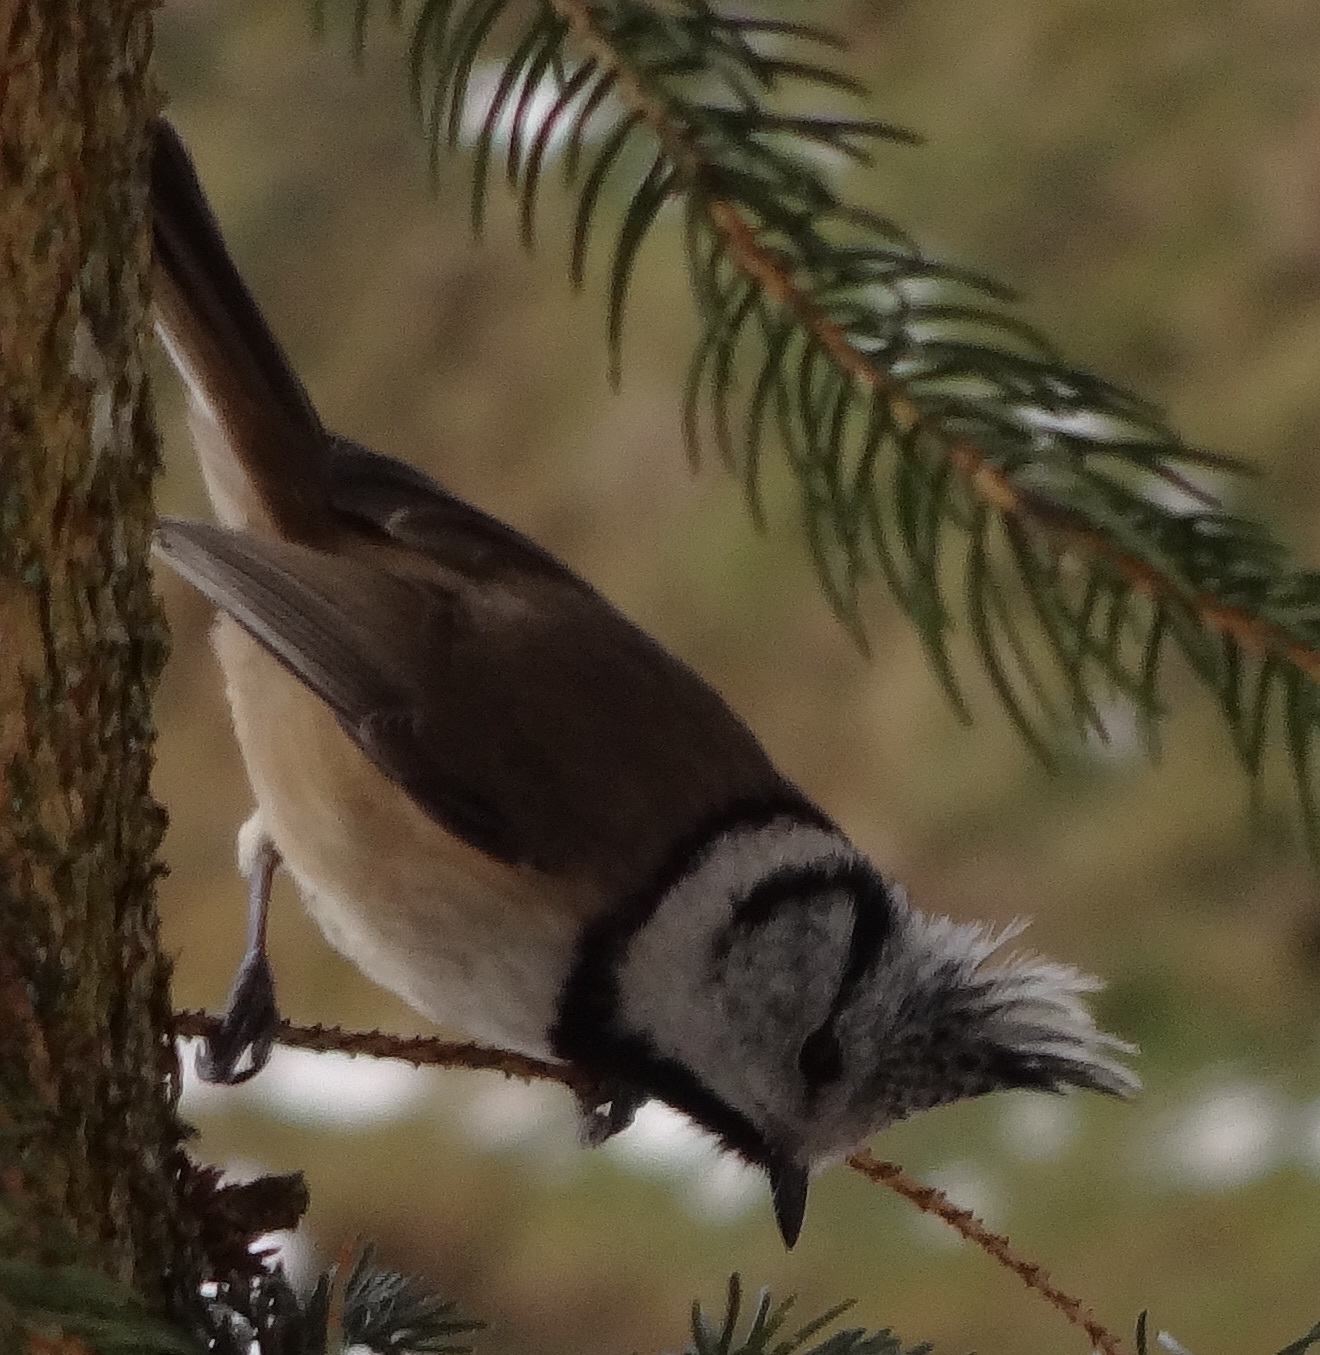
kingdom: Animalia
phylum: Chordata
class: Aves
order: Passeriformes
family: Paridae
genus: Lophophanes
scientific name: Lophophanes cristatus
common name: European crested tit
